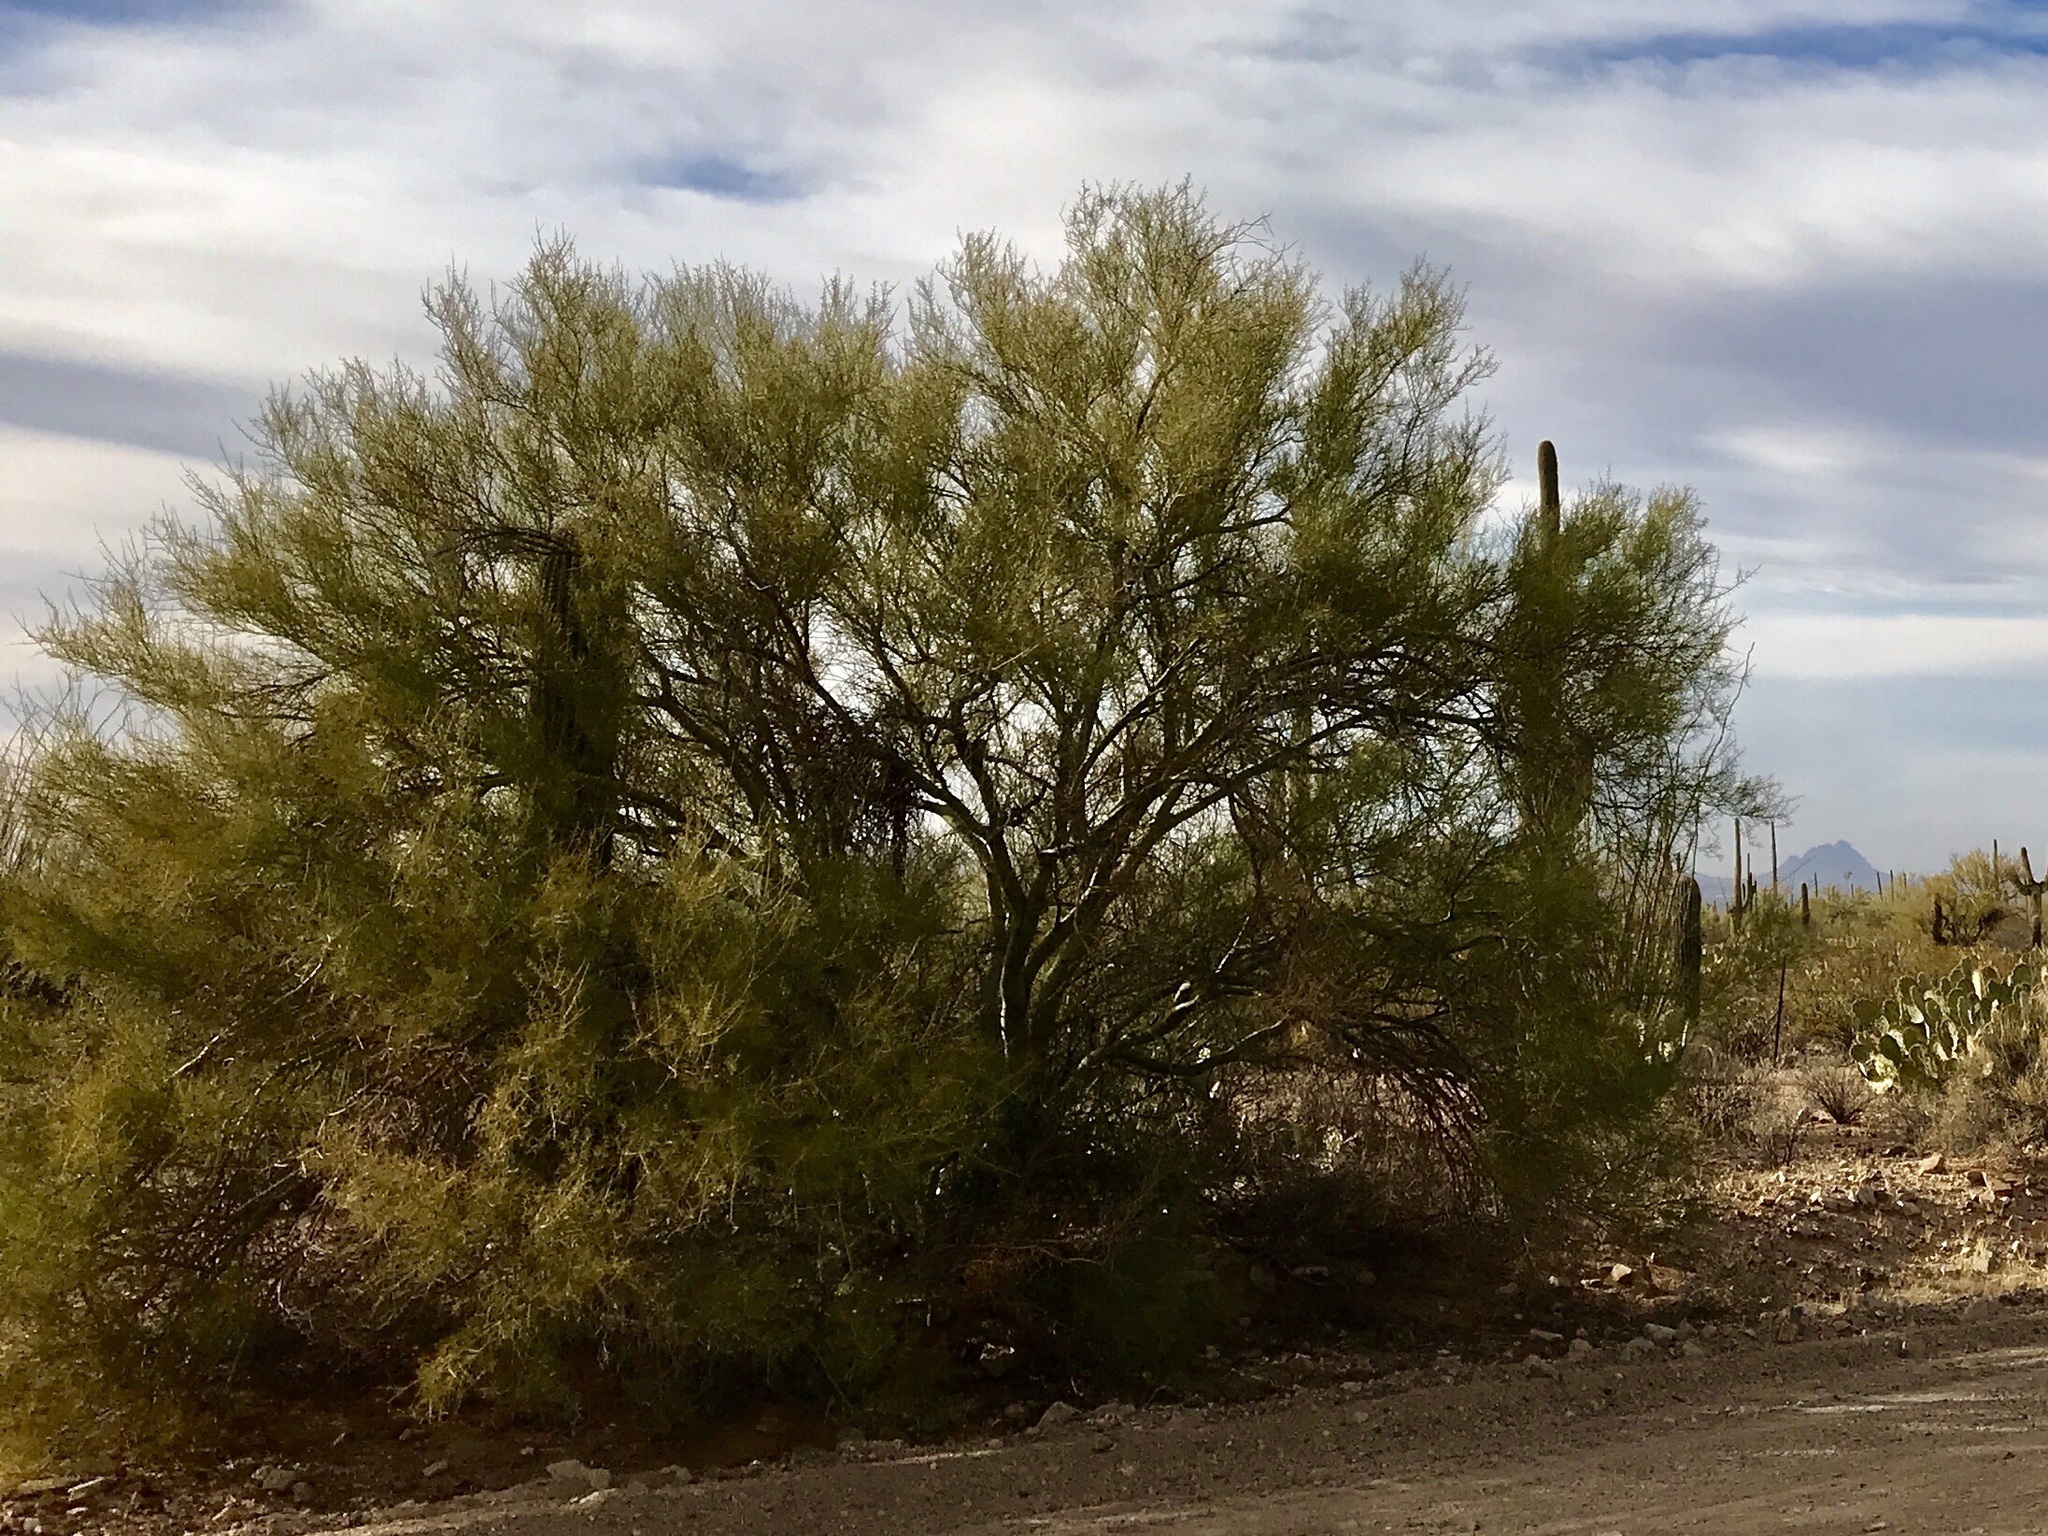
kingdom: Plantae
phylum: Tracheophyta
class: Magnoliopsida
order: Fabales
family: Fabaceae
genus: Parkinsonia
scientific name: Parkinsonia microphylla
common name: Yellow paloverde
